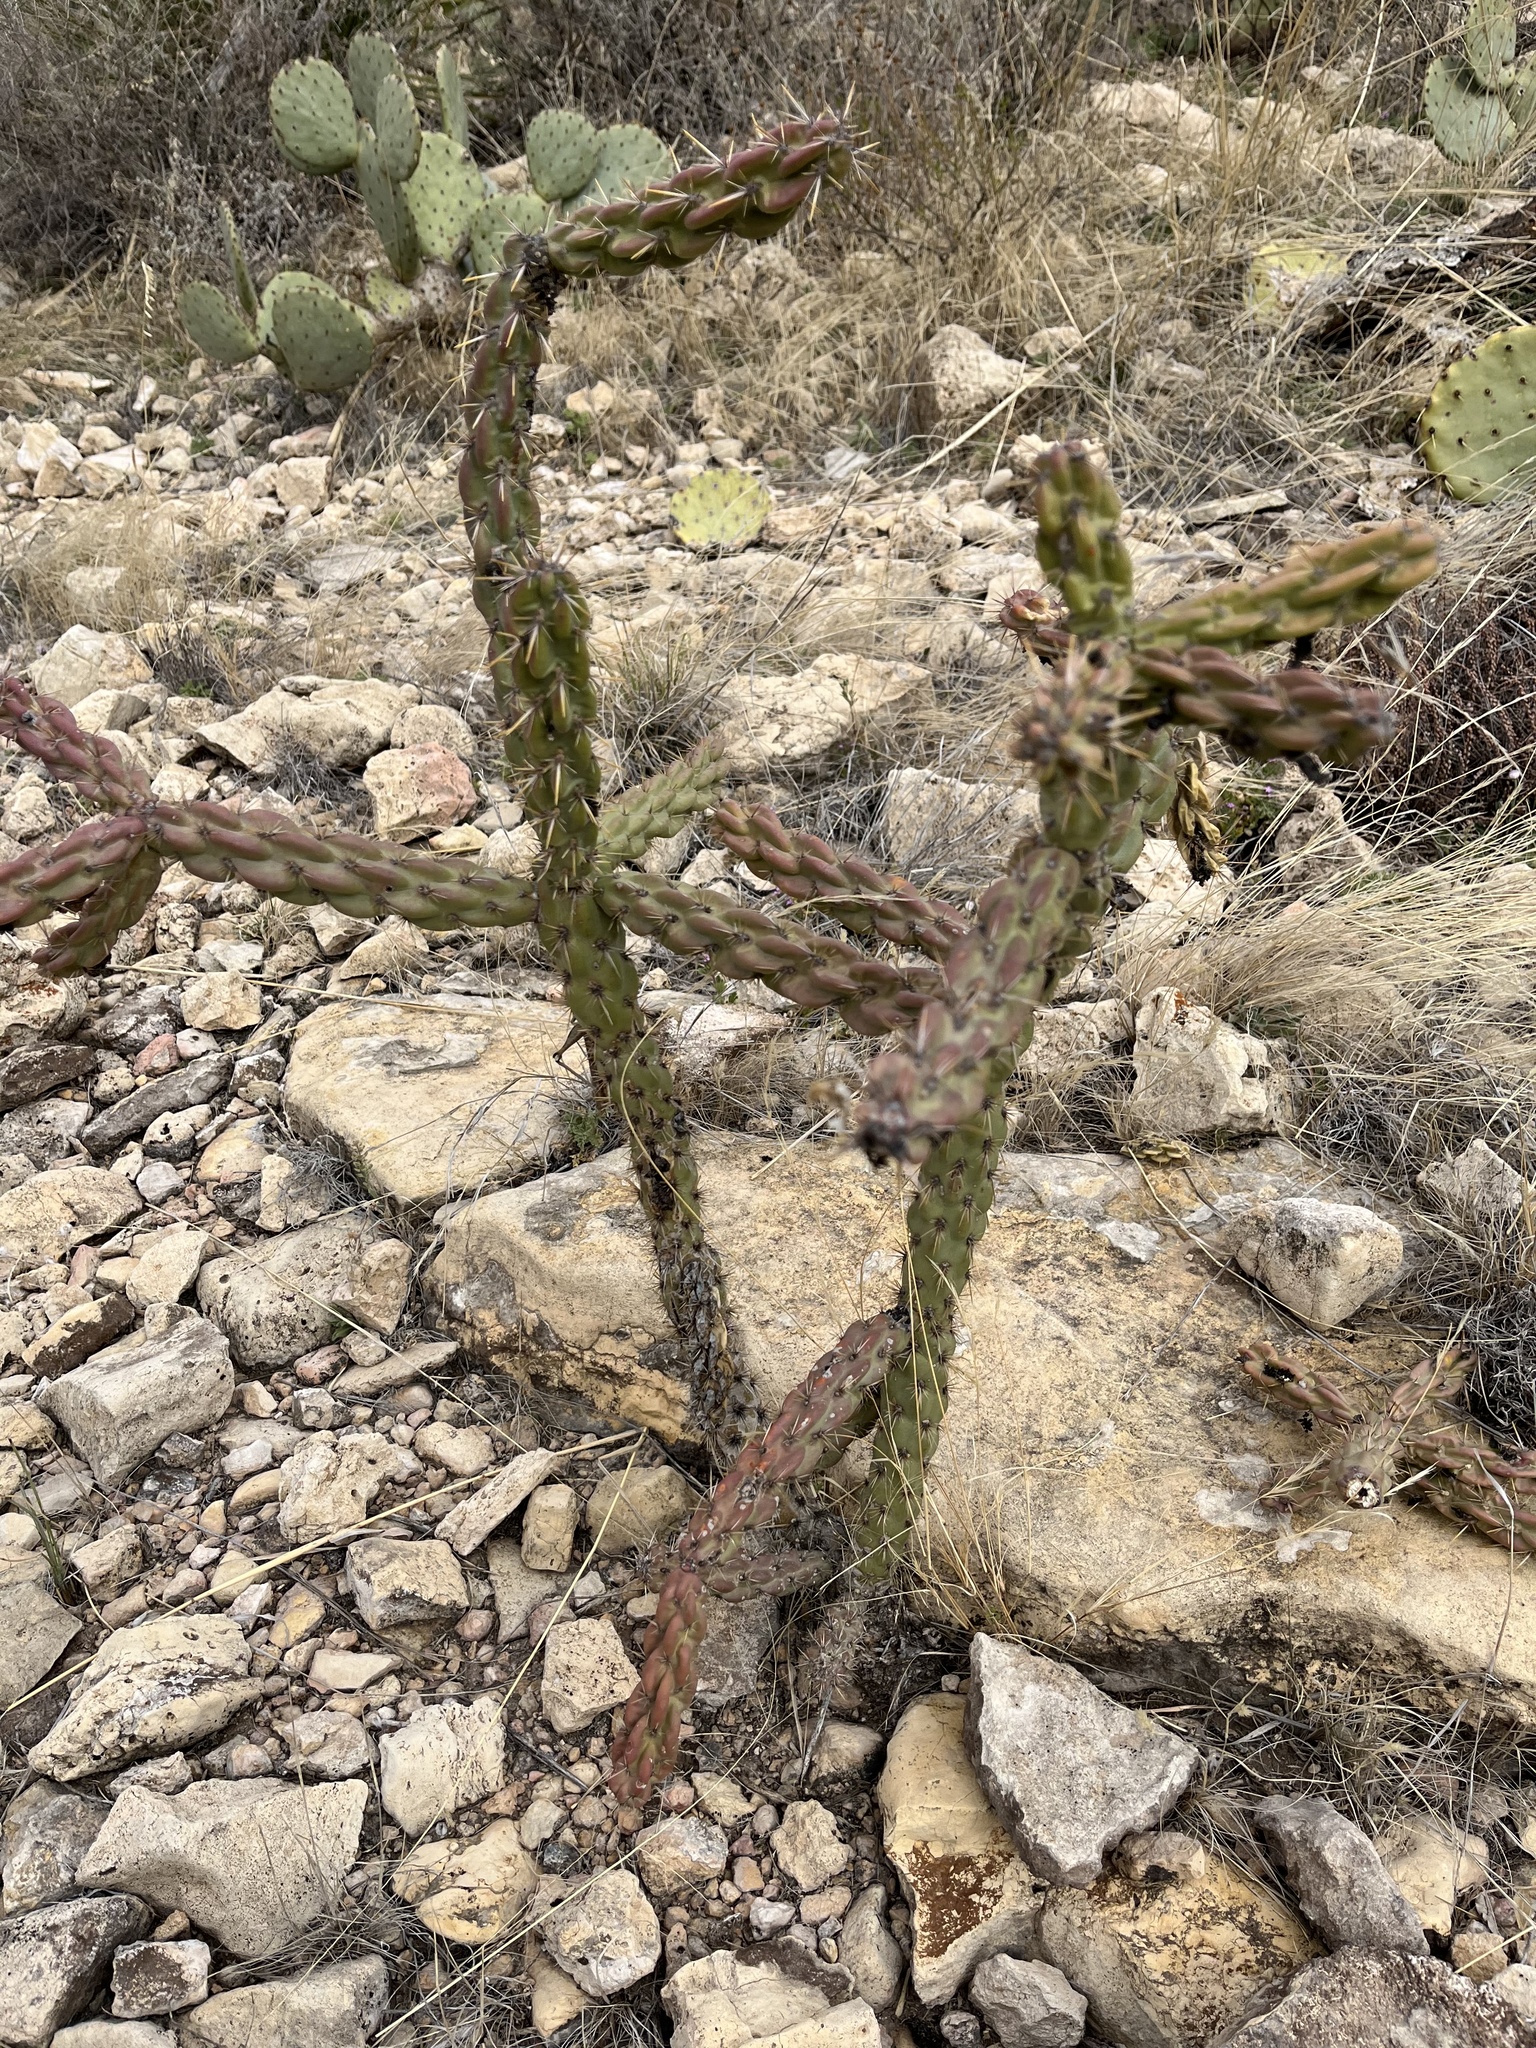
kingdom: Plantae
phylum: Tracheophyta
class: Magnoliopsida
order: Caryophyllales
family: Cactaceae
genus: Cylindropuntia
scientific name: Cylindropuntia imbricata
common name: Candelabrum cactus
